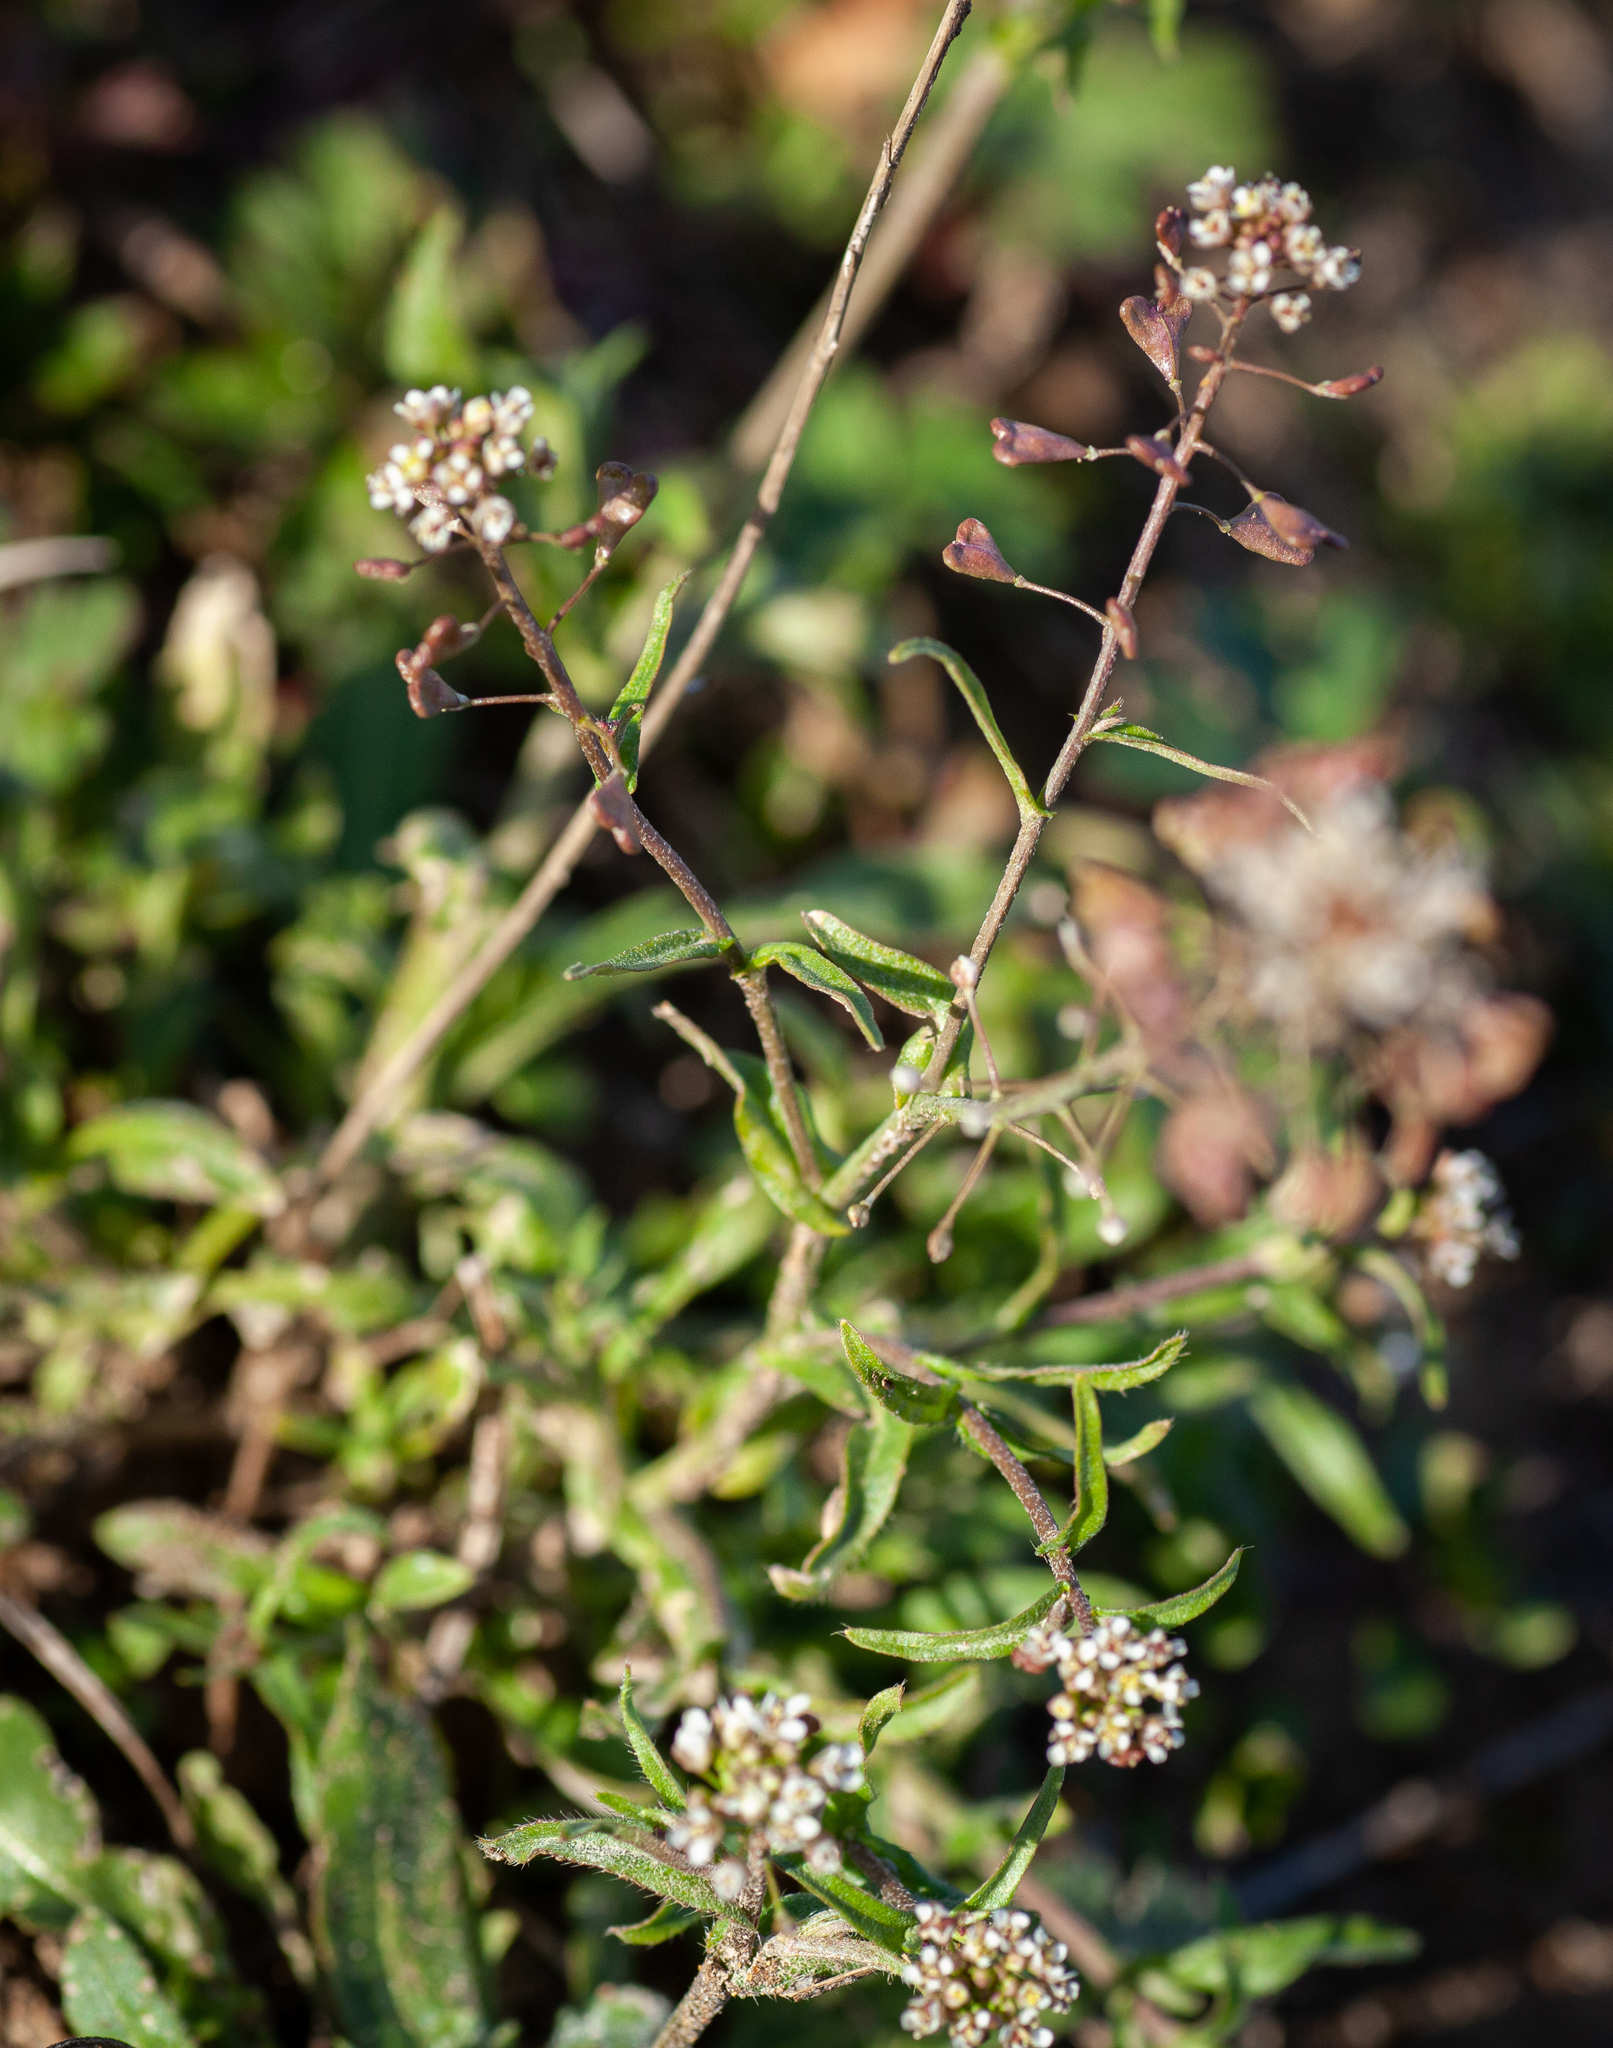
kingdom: Plantae
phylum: Tracheophyta
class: Magnoliopsida
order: Brassicales
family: Brassicaceae
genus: Capsella
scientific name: Capsella bursa-pastoris
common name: Shepherd's purse
